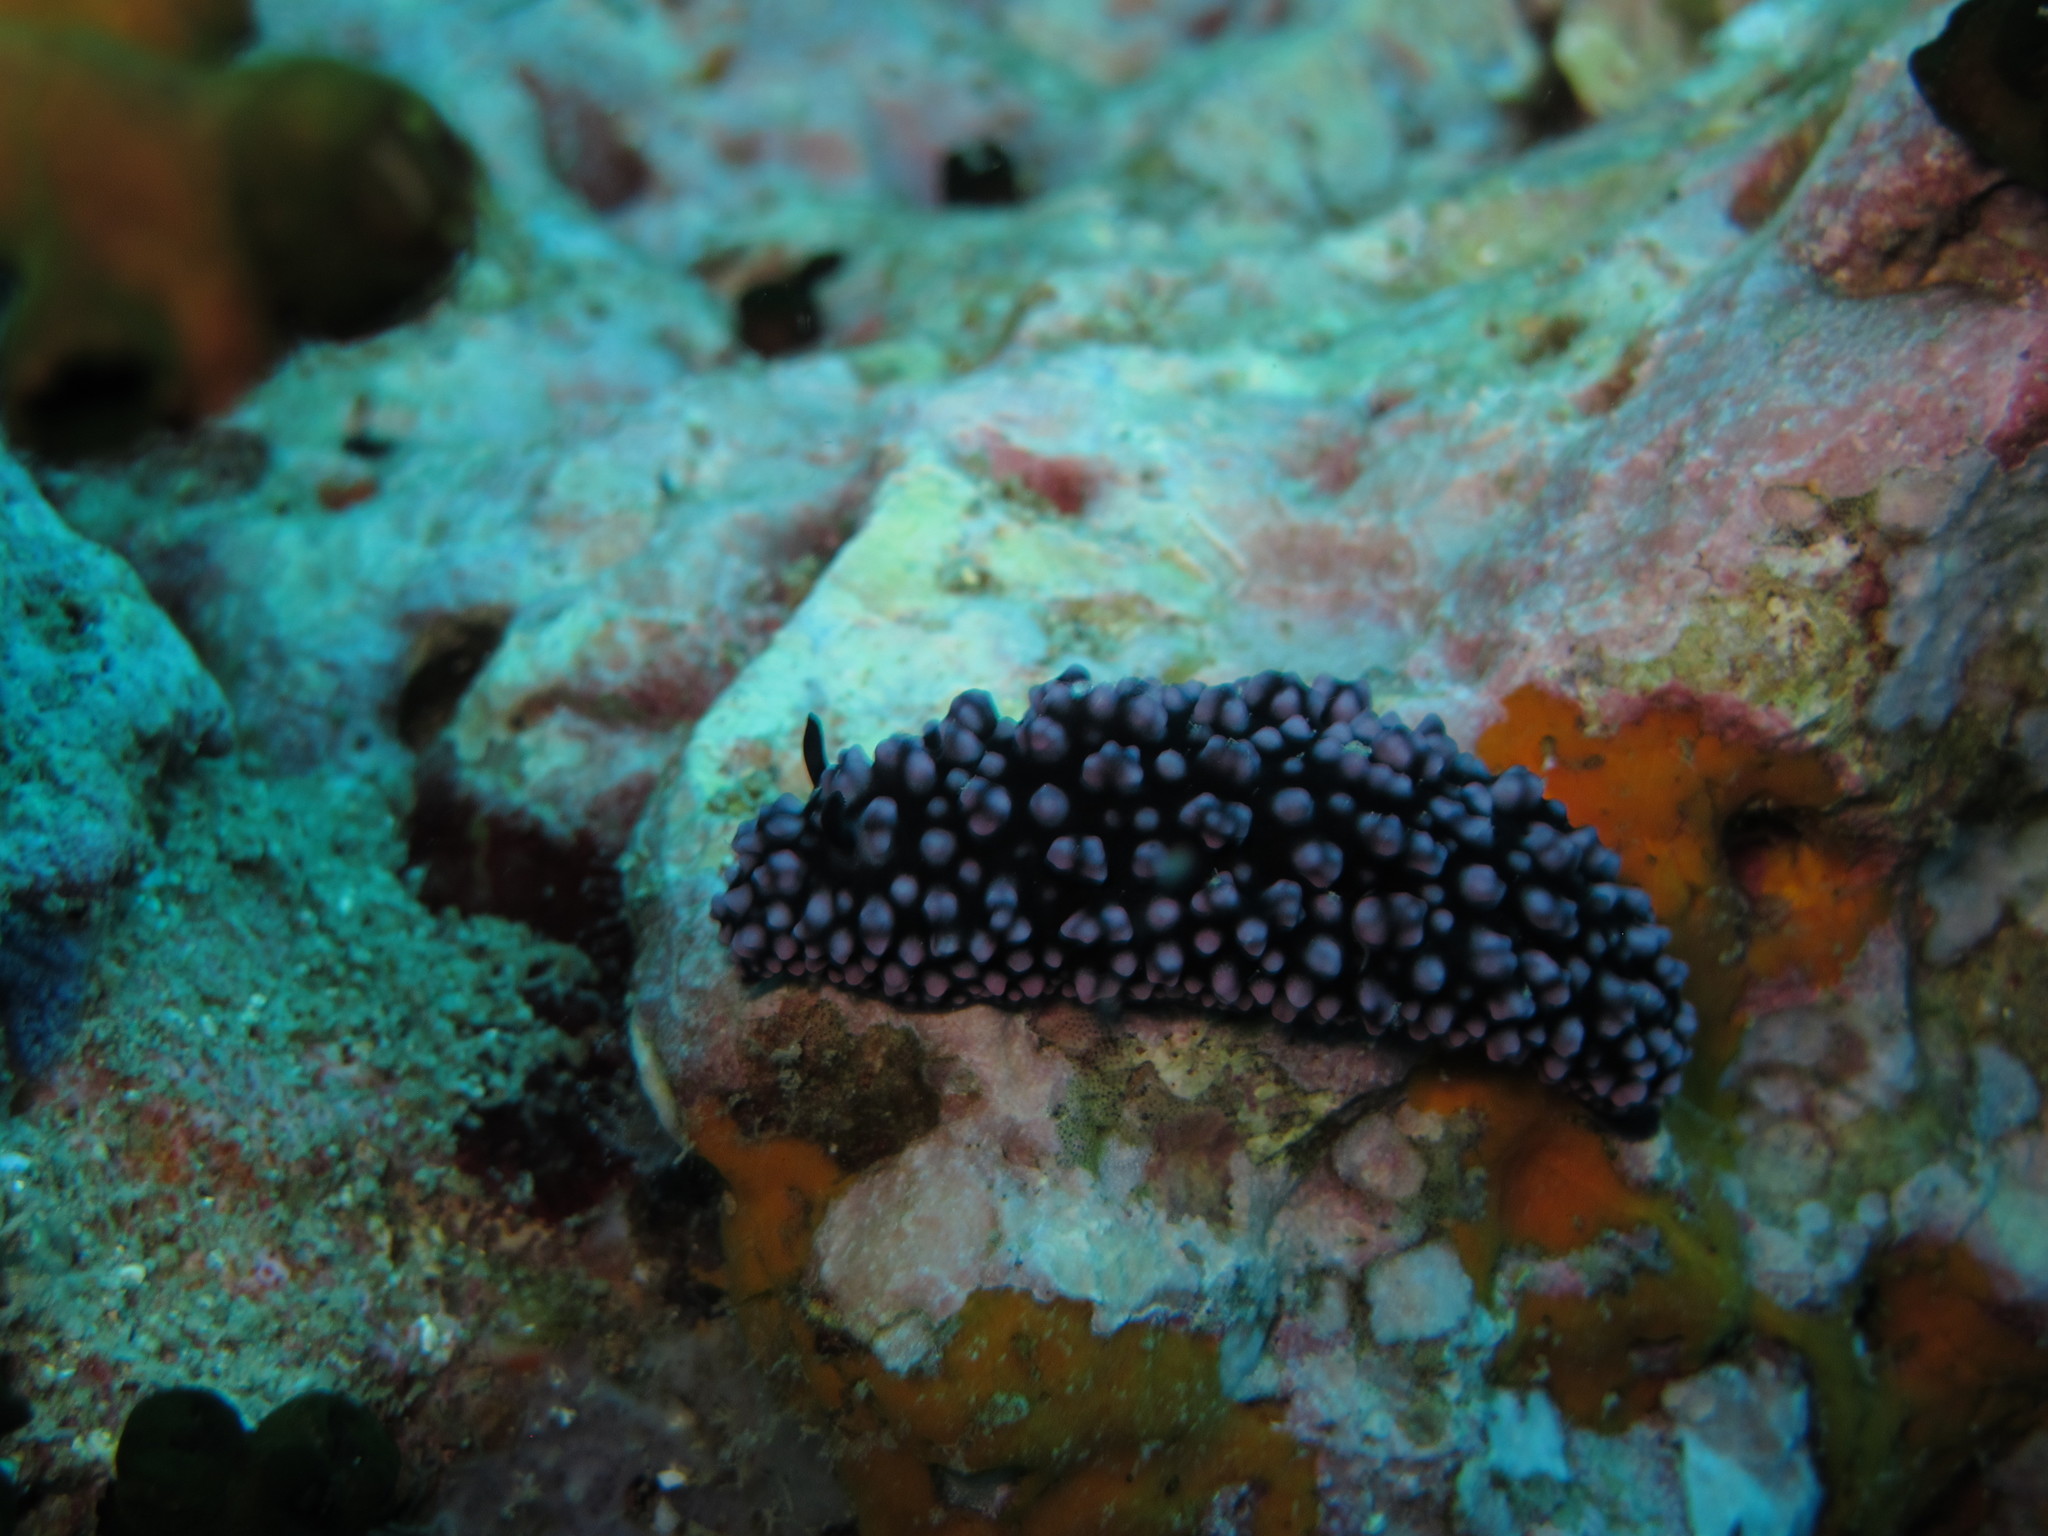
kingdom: Animalia
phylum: Mollusca
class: Gastropoda
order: Nudibranchia
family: Phyllidiidae
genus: Phyllidiella
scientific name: Phyllidiella nigra
